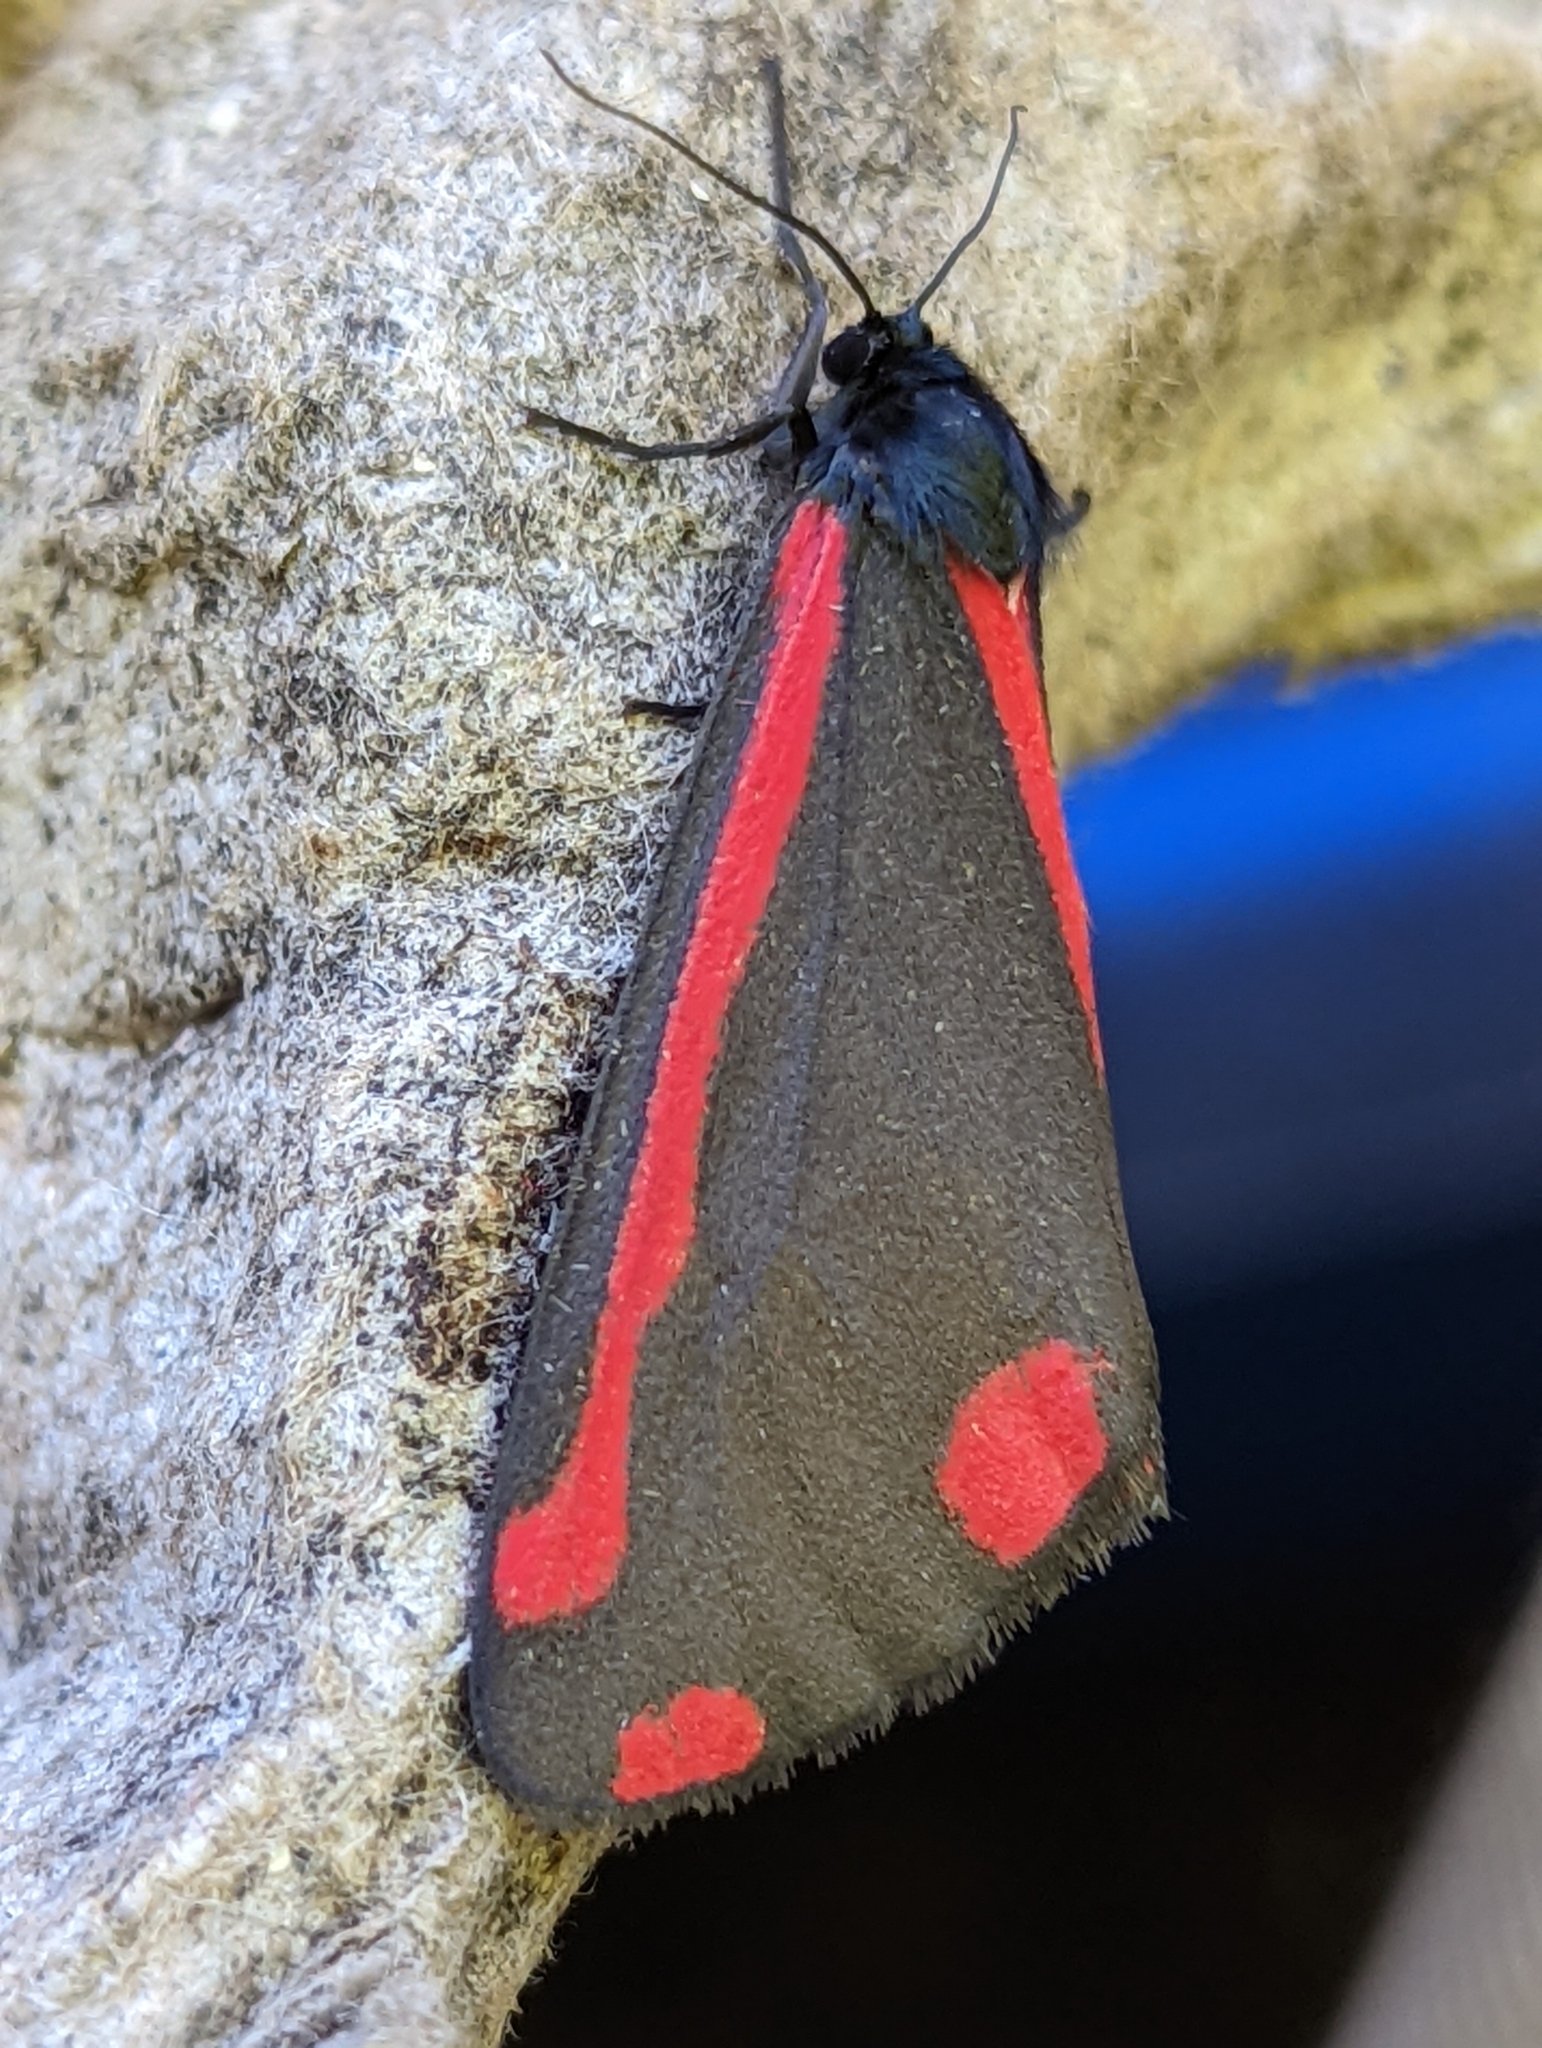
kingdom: Animalia
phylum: Arthropoda
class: Insecta
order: Lepidoptera
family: Erebidae
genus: Tyria
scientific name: Tyria jacobaeae
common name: Cinnabar
